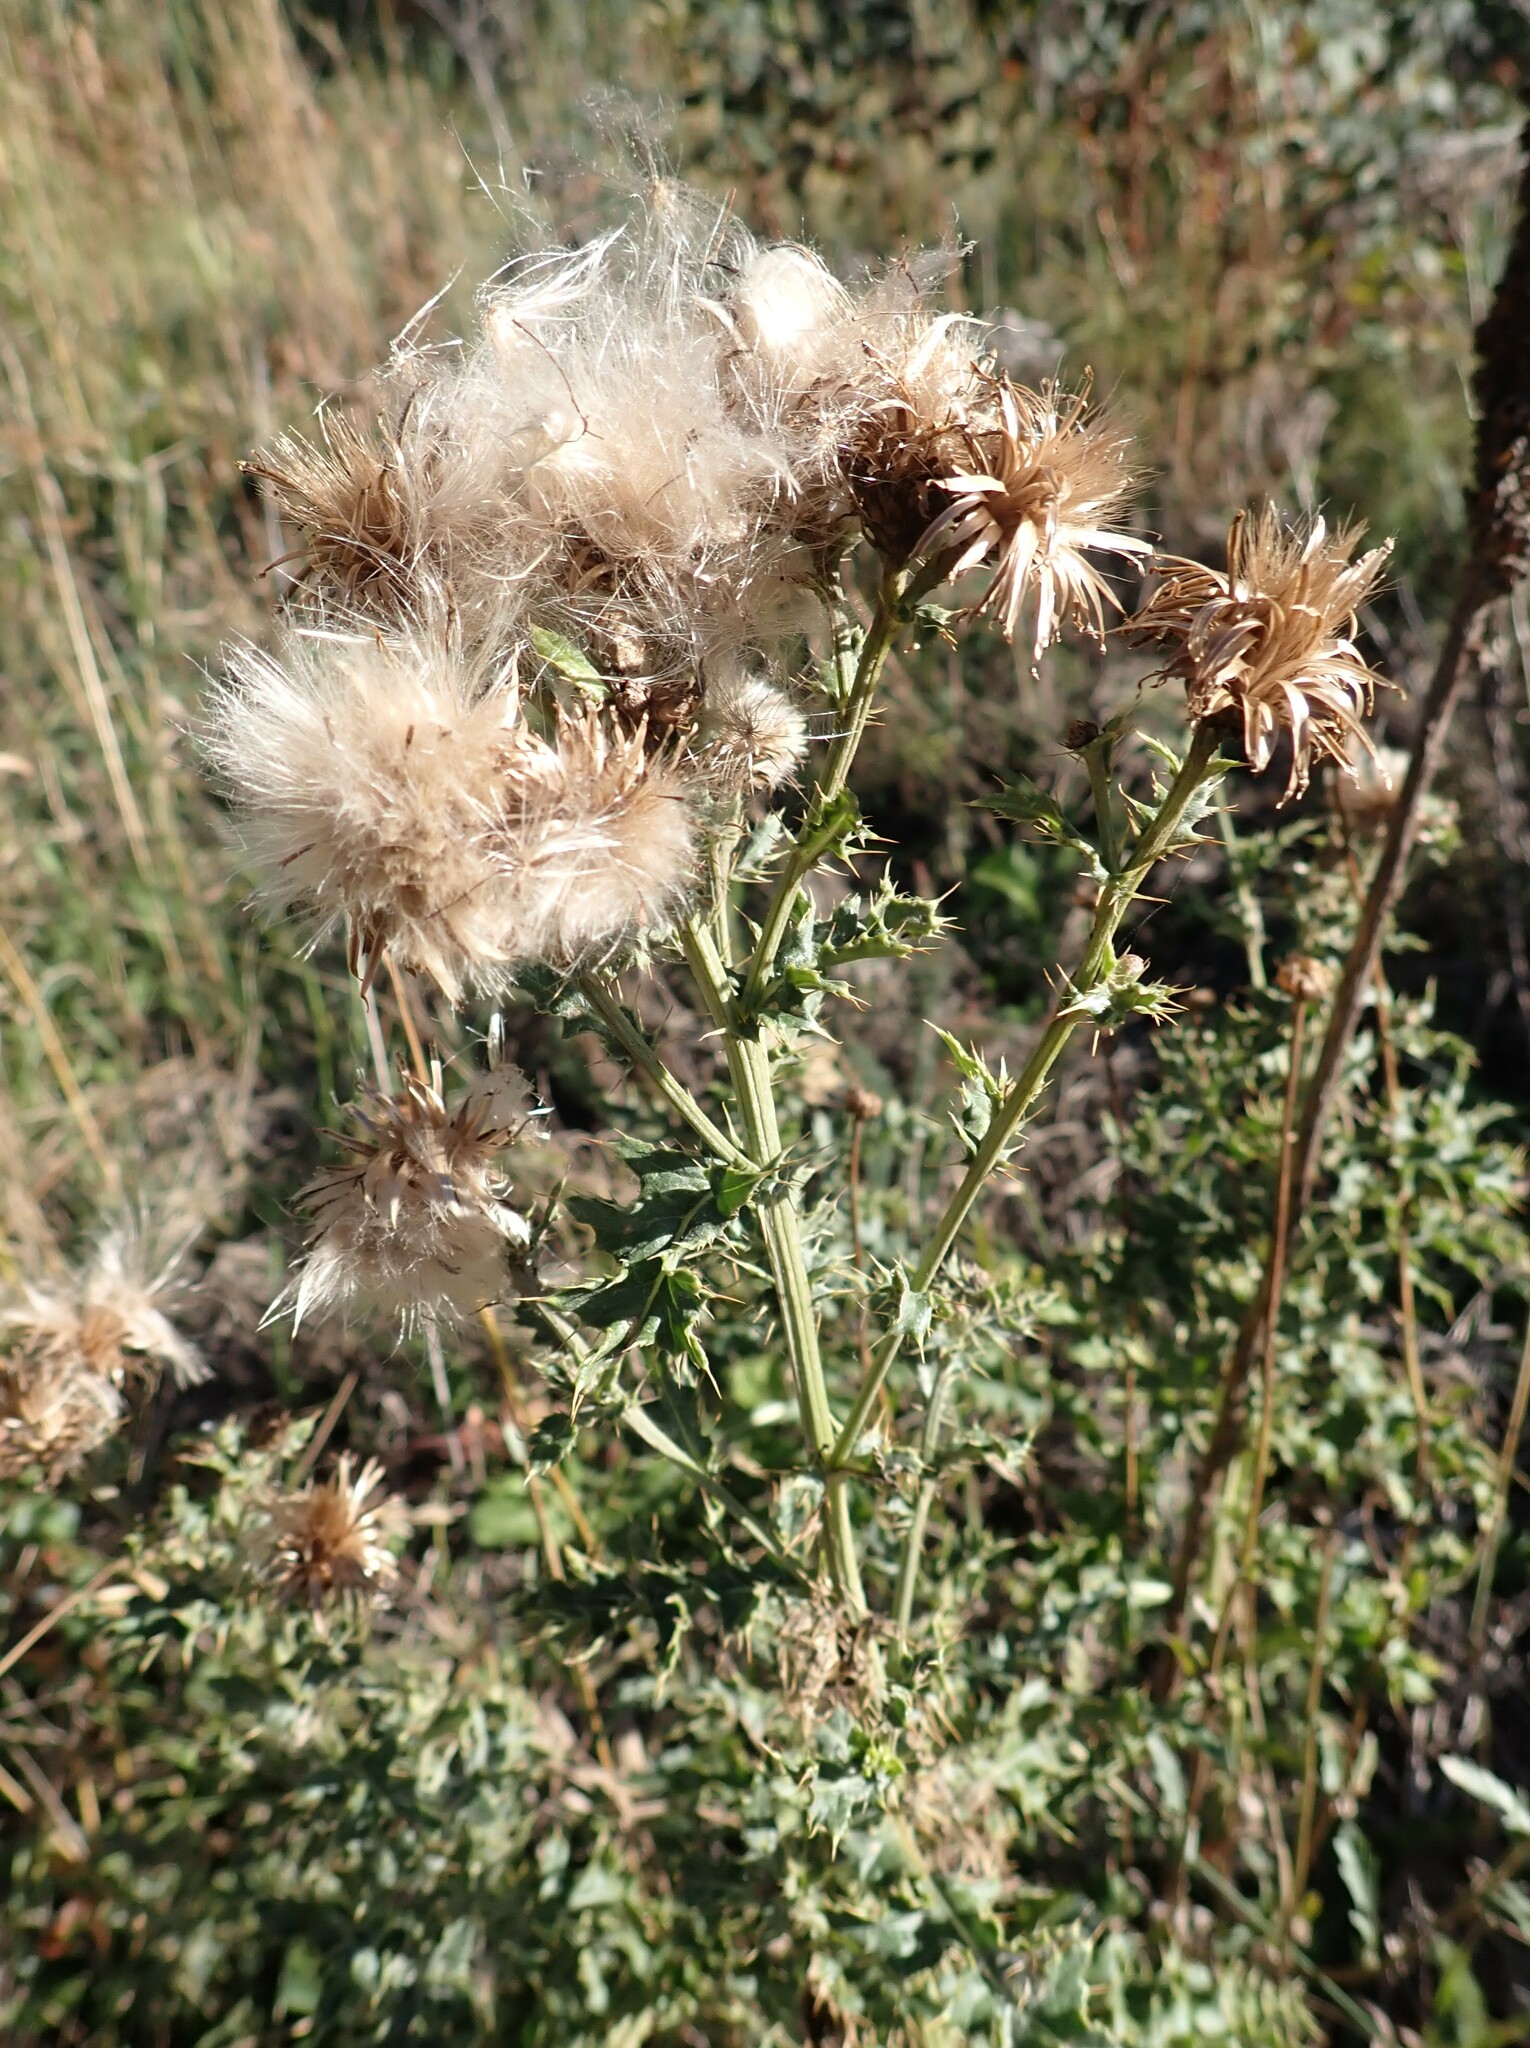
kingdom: Plantae
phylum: Tracheophyta
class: Magnoliopsida
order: Asterales
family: Asteraceae
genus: Cirsium
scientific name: Cirsium arvense
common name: Creeping thistle
